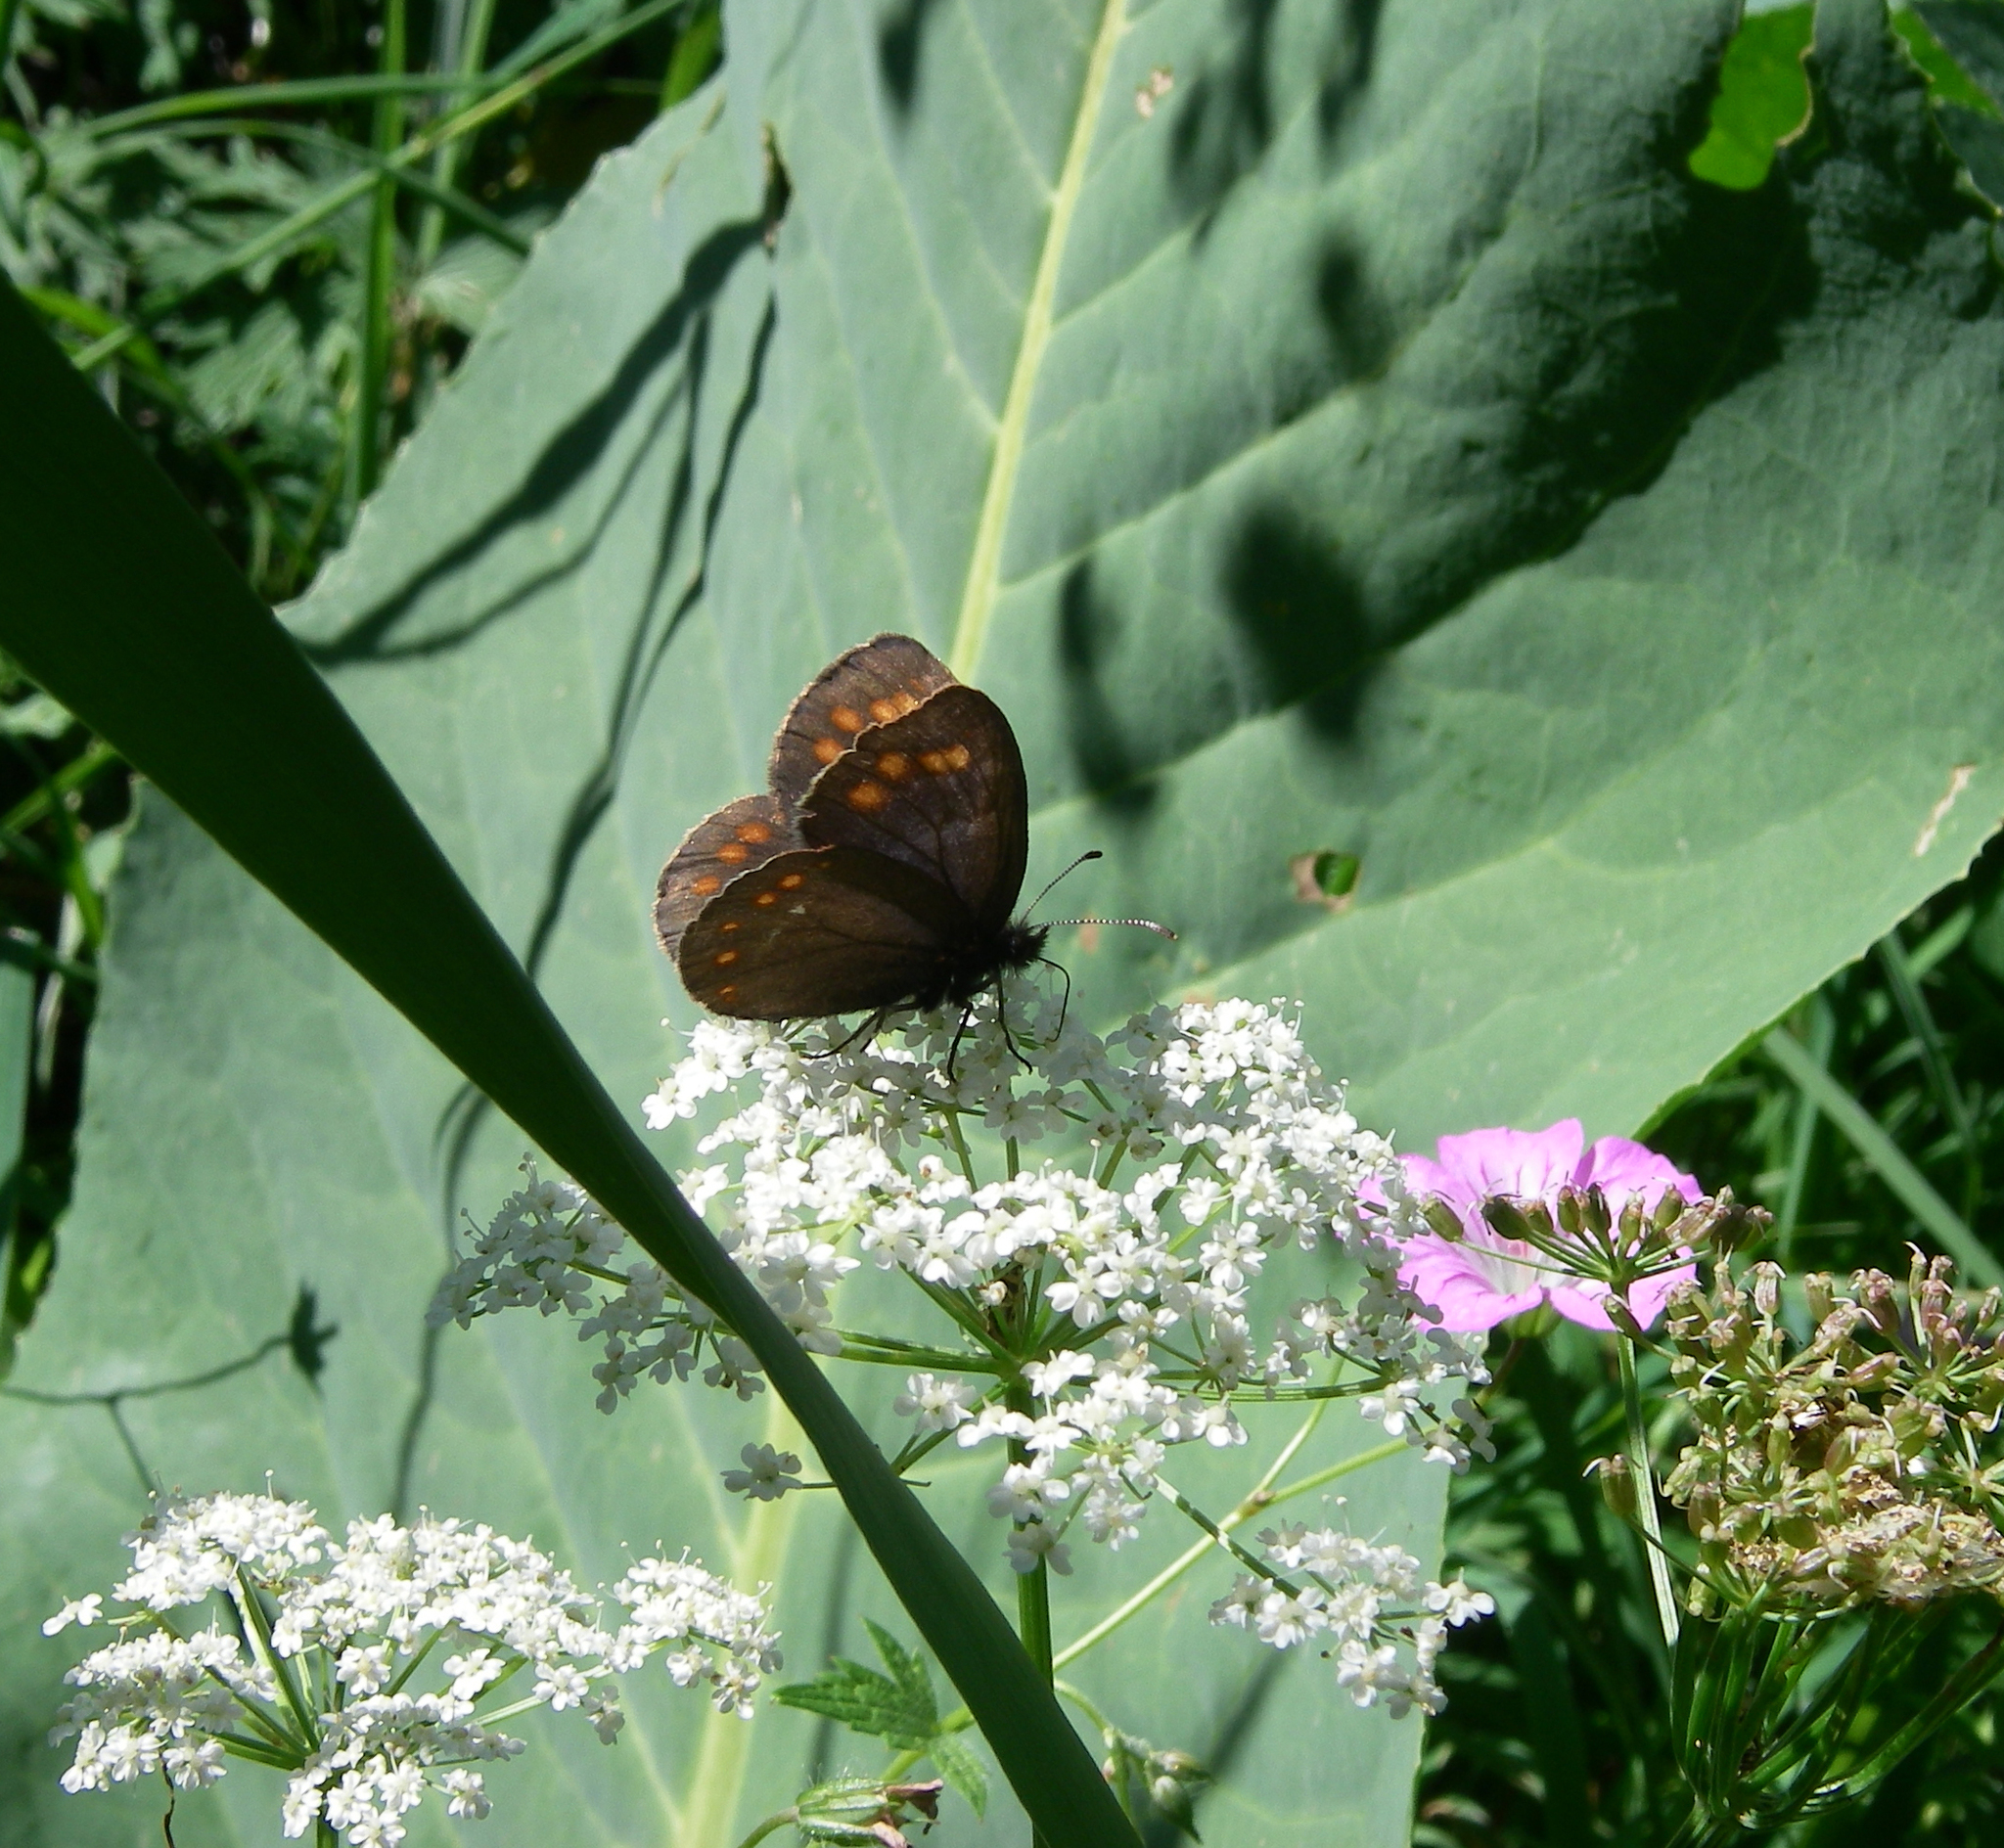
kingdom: Plantae
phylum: Tracheophyta
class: Magnoliopsida
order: Geraniales
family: Geraniaceae
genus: Geranium
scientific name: Geranium rectum
